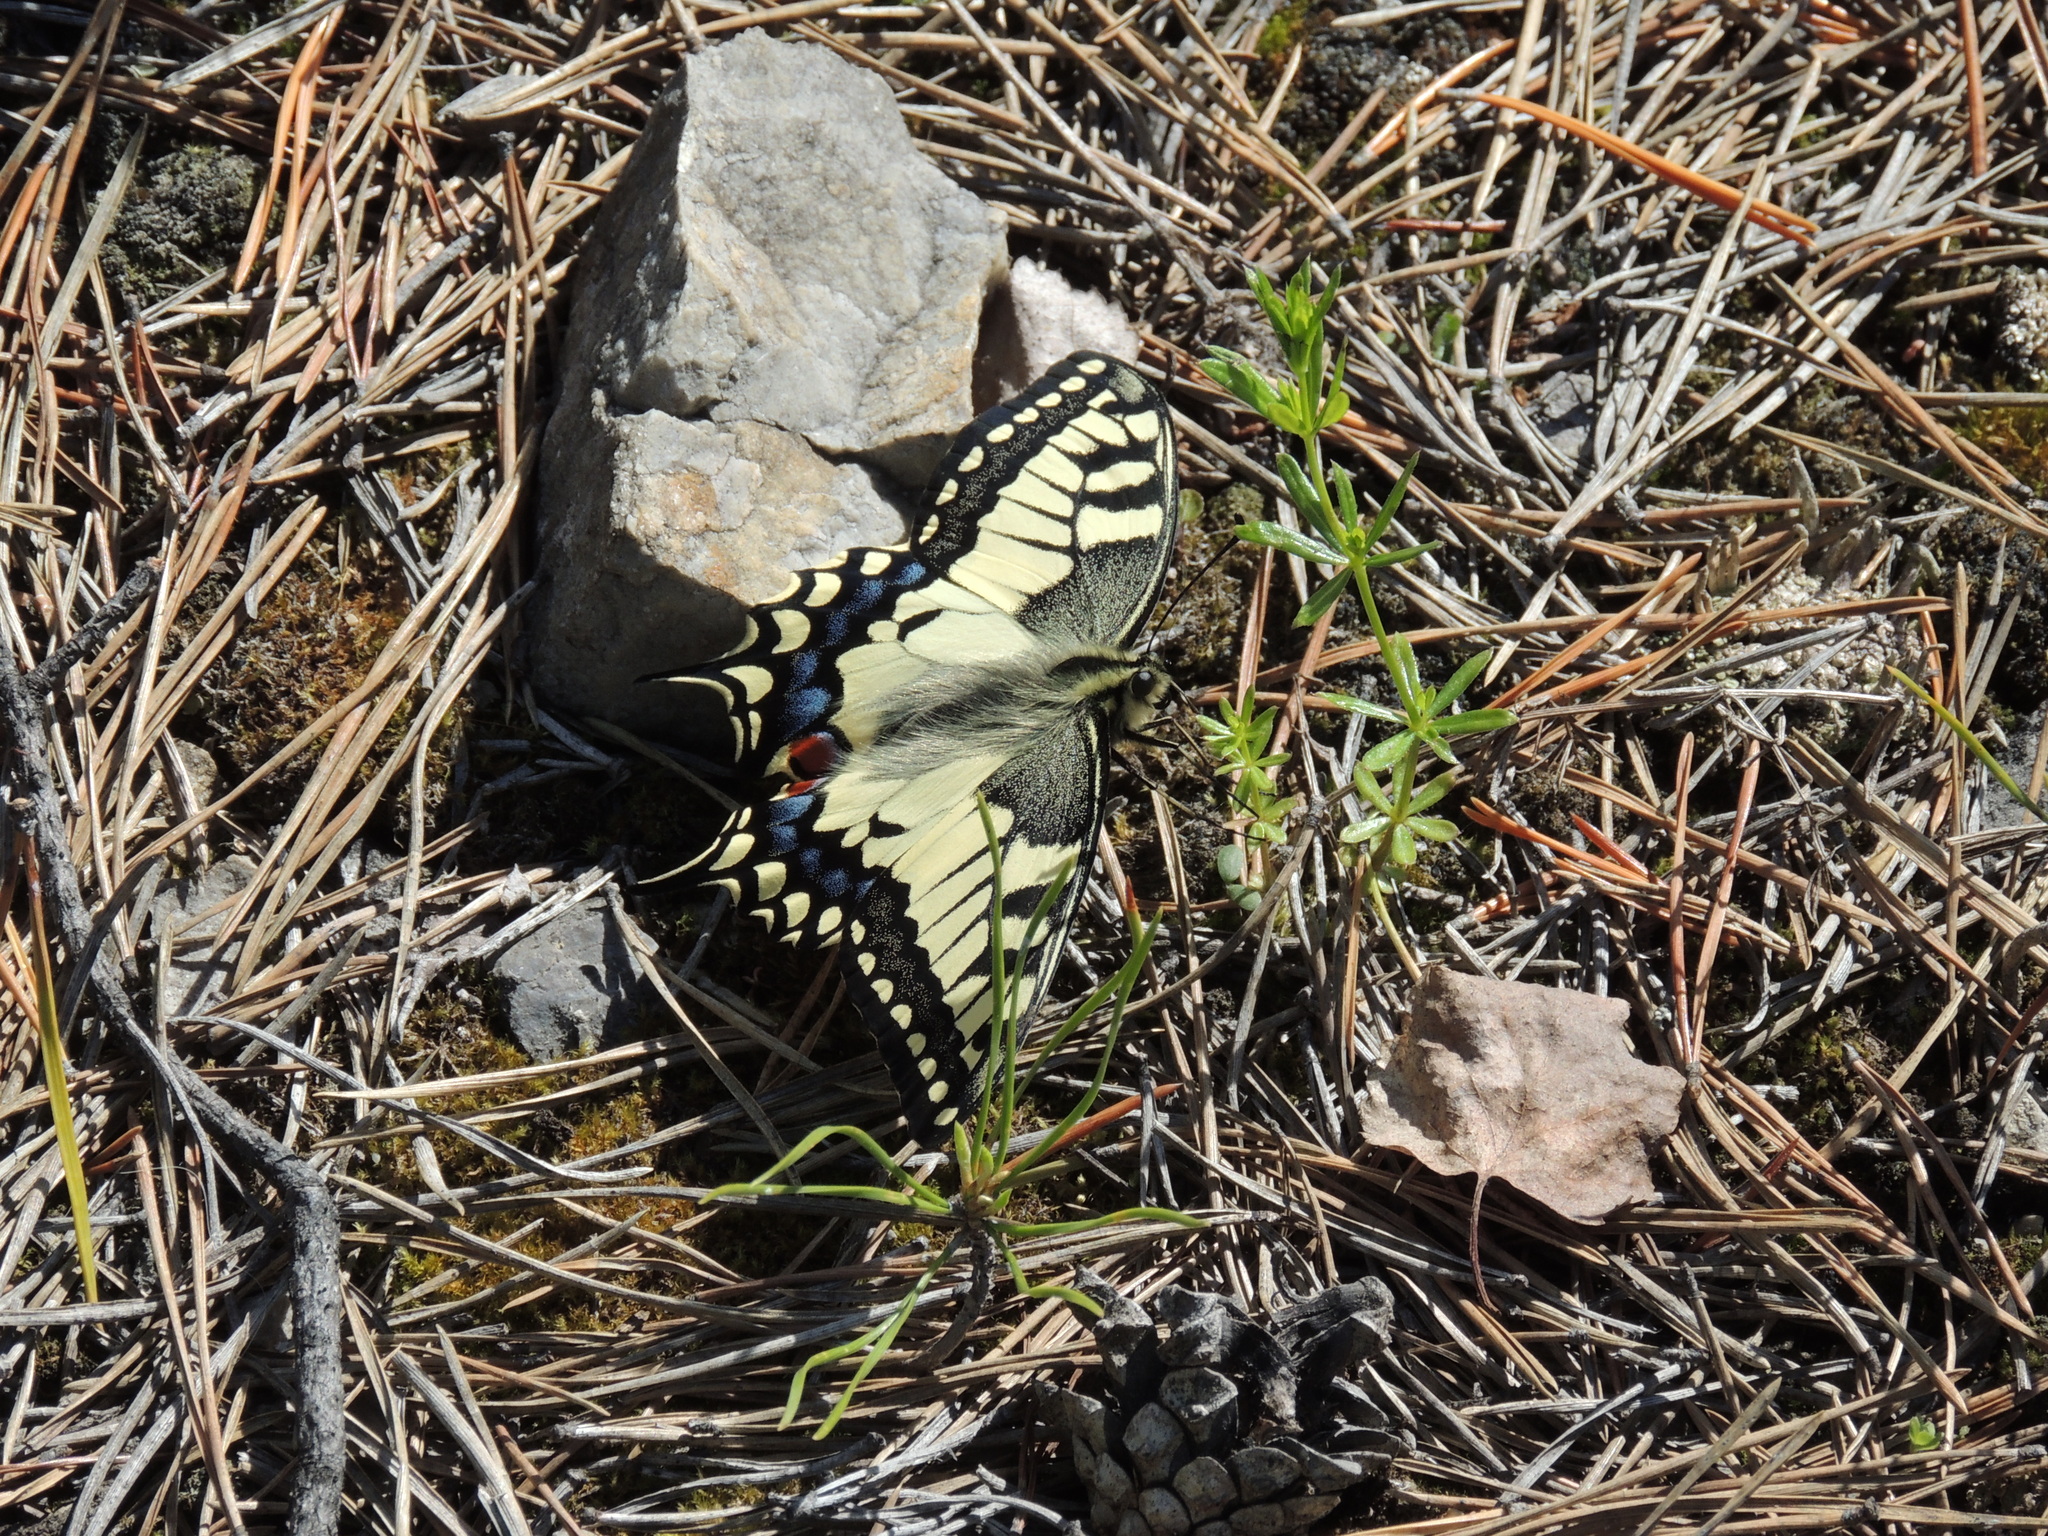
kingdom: Animalia
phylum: Arthropoda
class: Insecta
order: Lepidoptera
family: Papilionidae
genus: Papilio
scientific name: Papilio machaon
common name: Swallowtail
